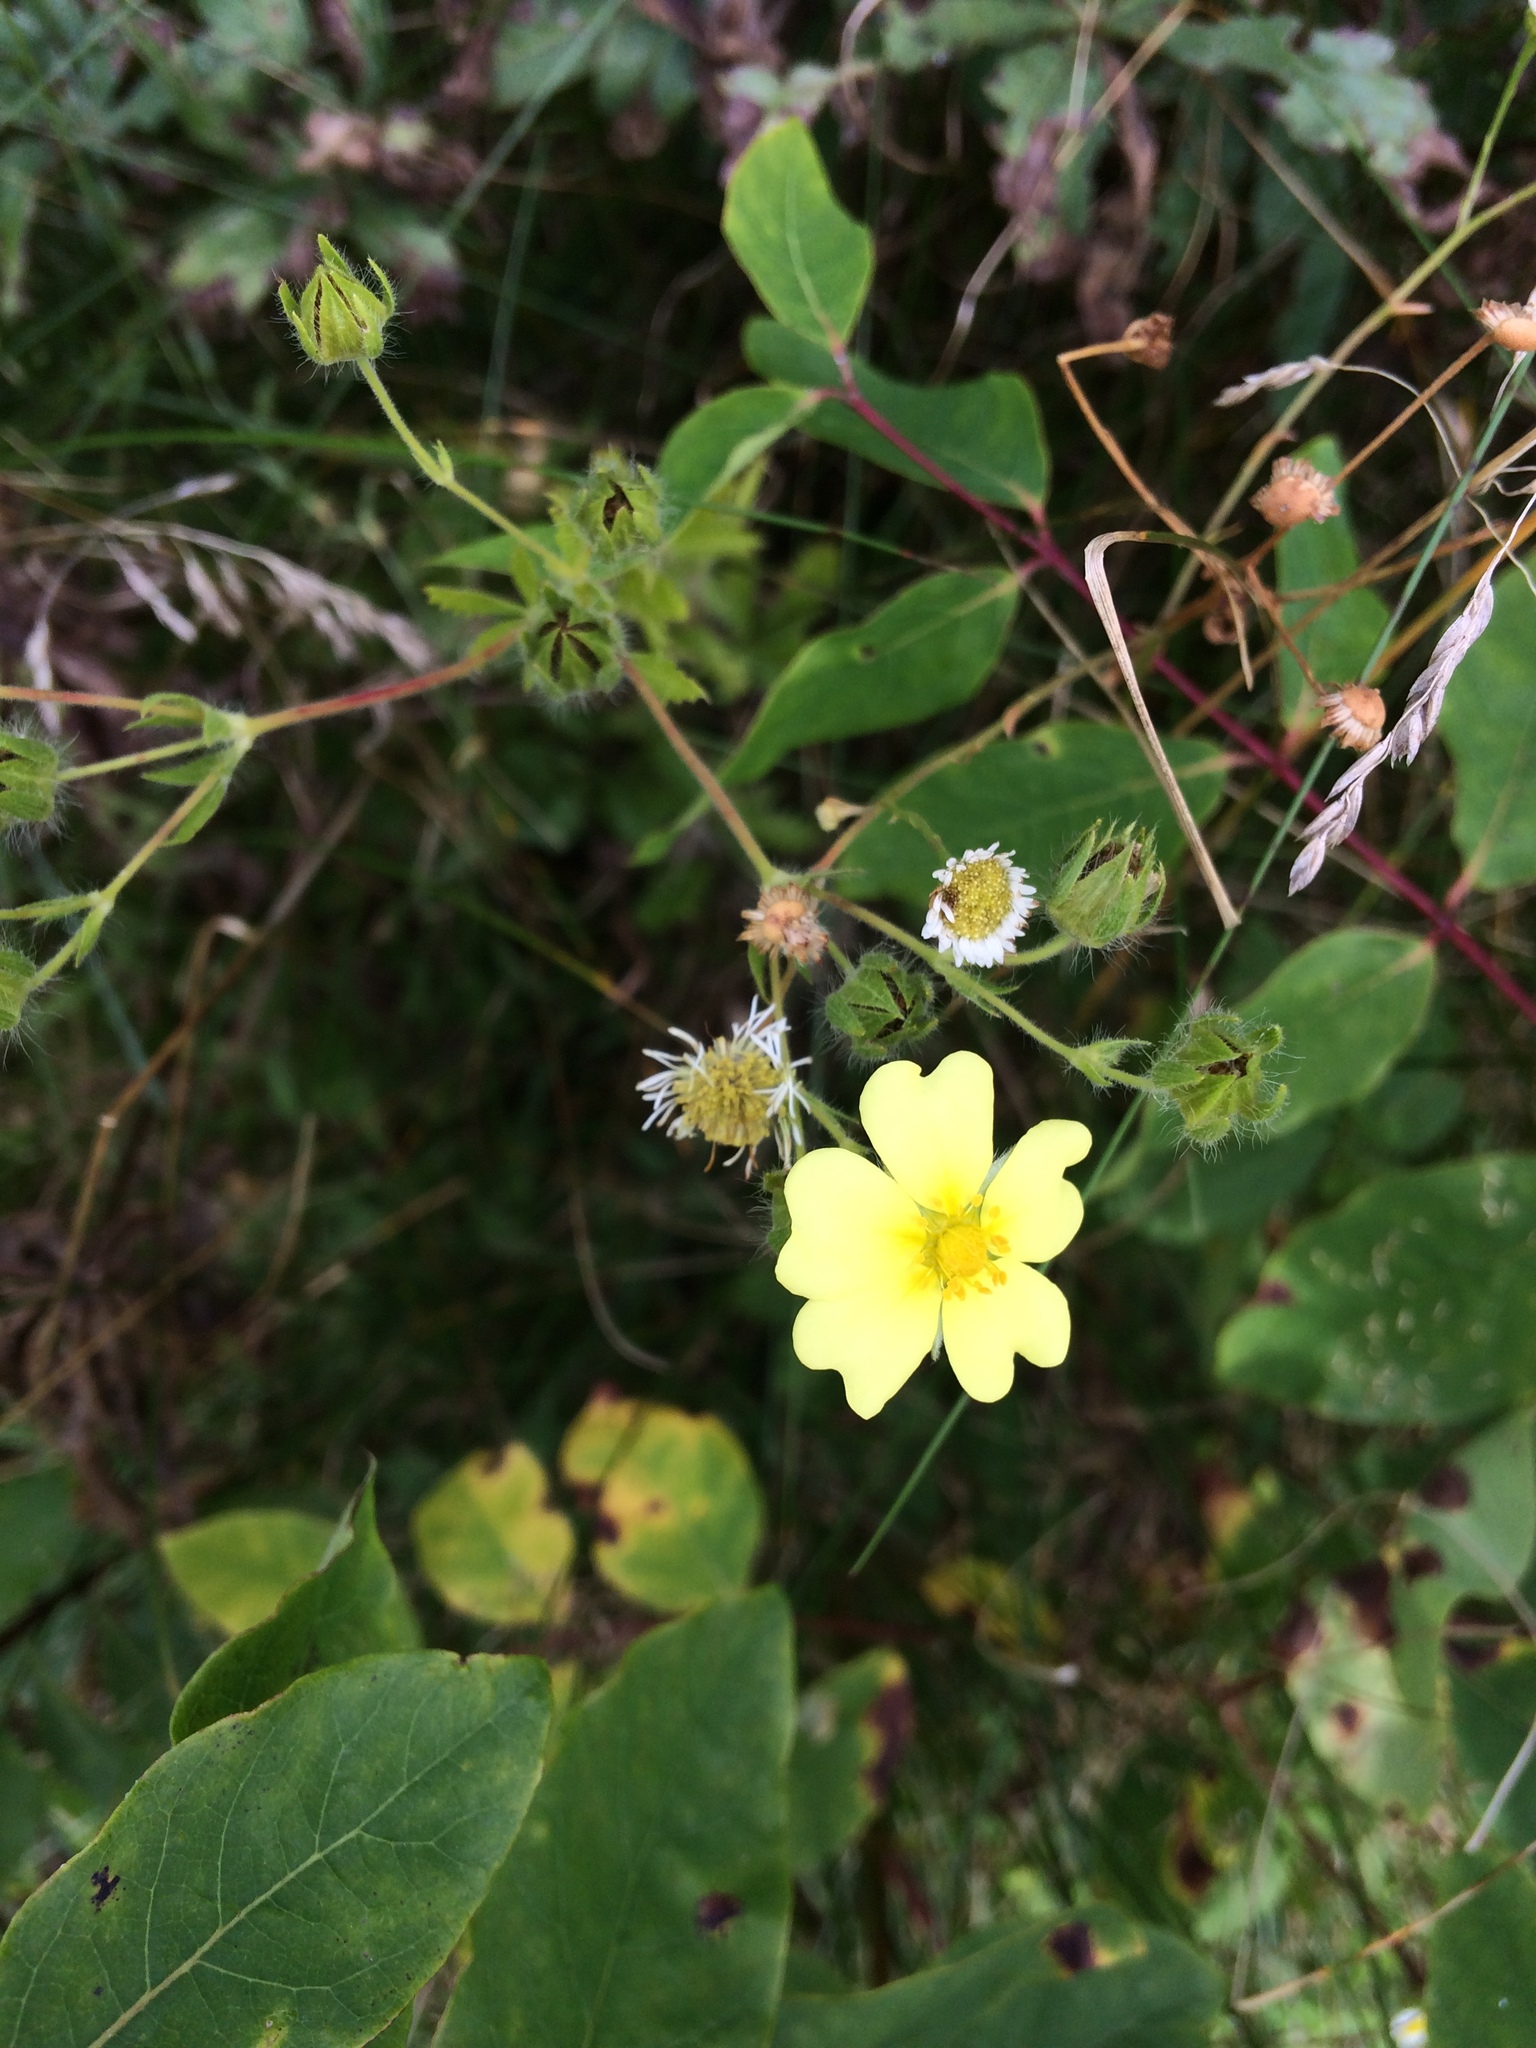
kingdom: Plantae
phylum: Tracheophyta
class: Magnoliopsida
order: Rosales
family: Rosaceae
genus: Potentilla
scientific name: Potentilla recta
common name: Sulphur cinquefoil
